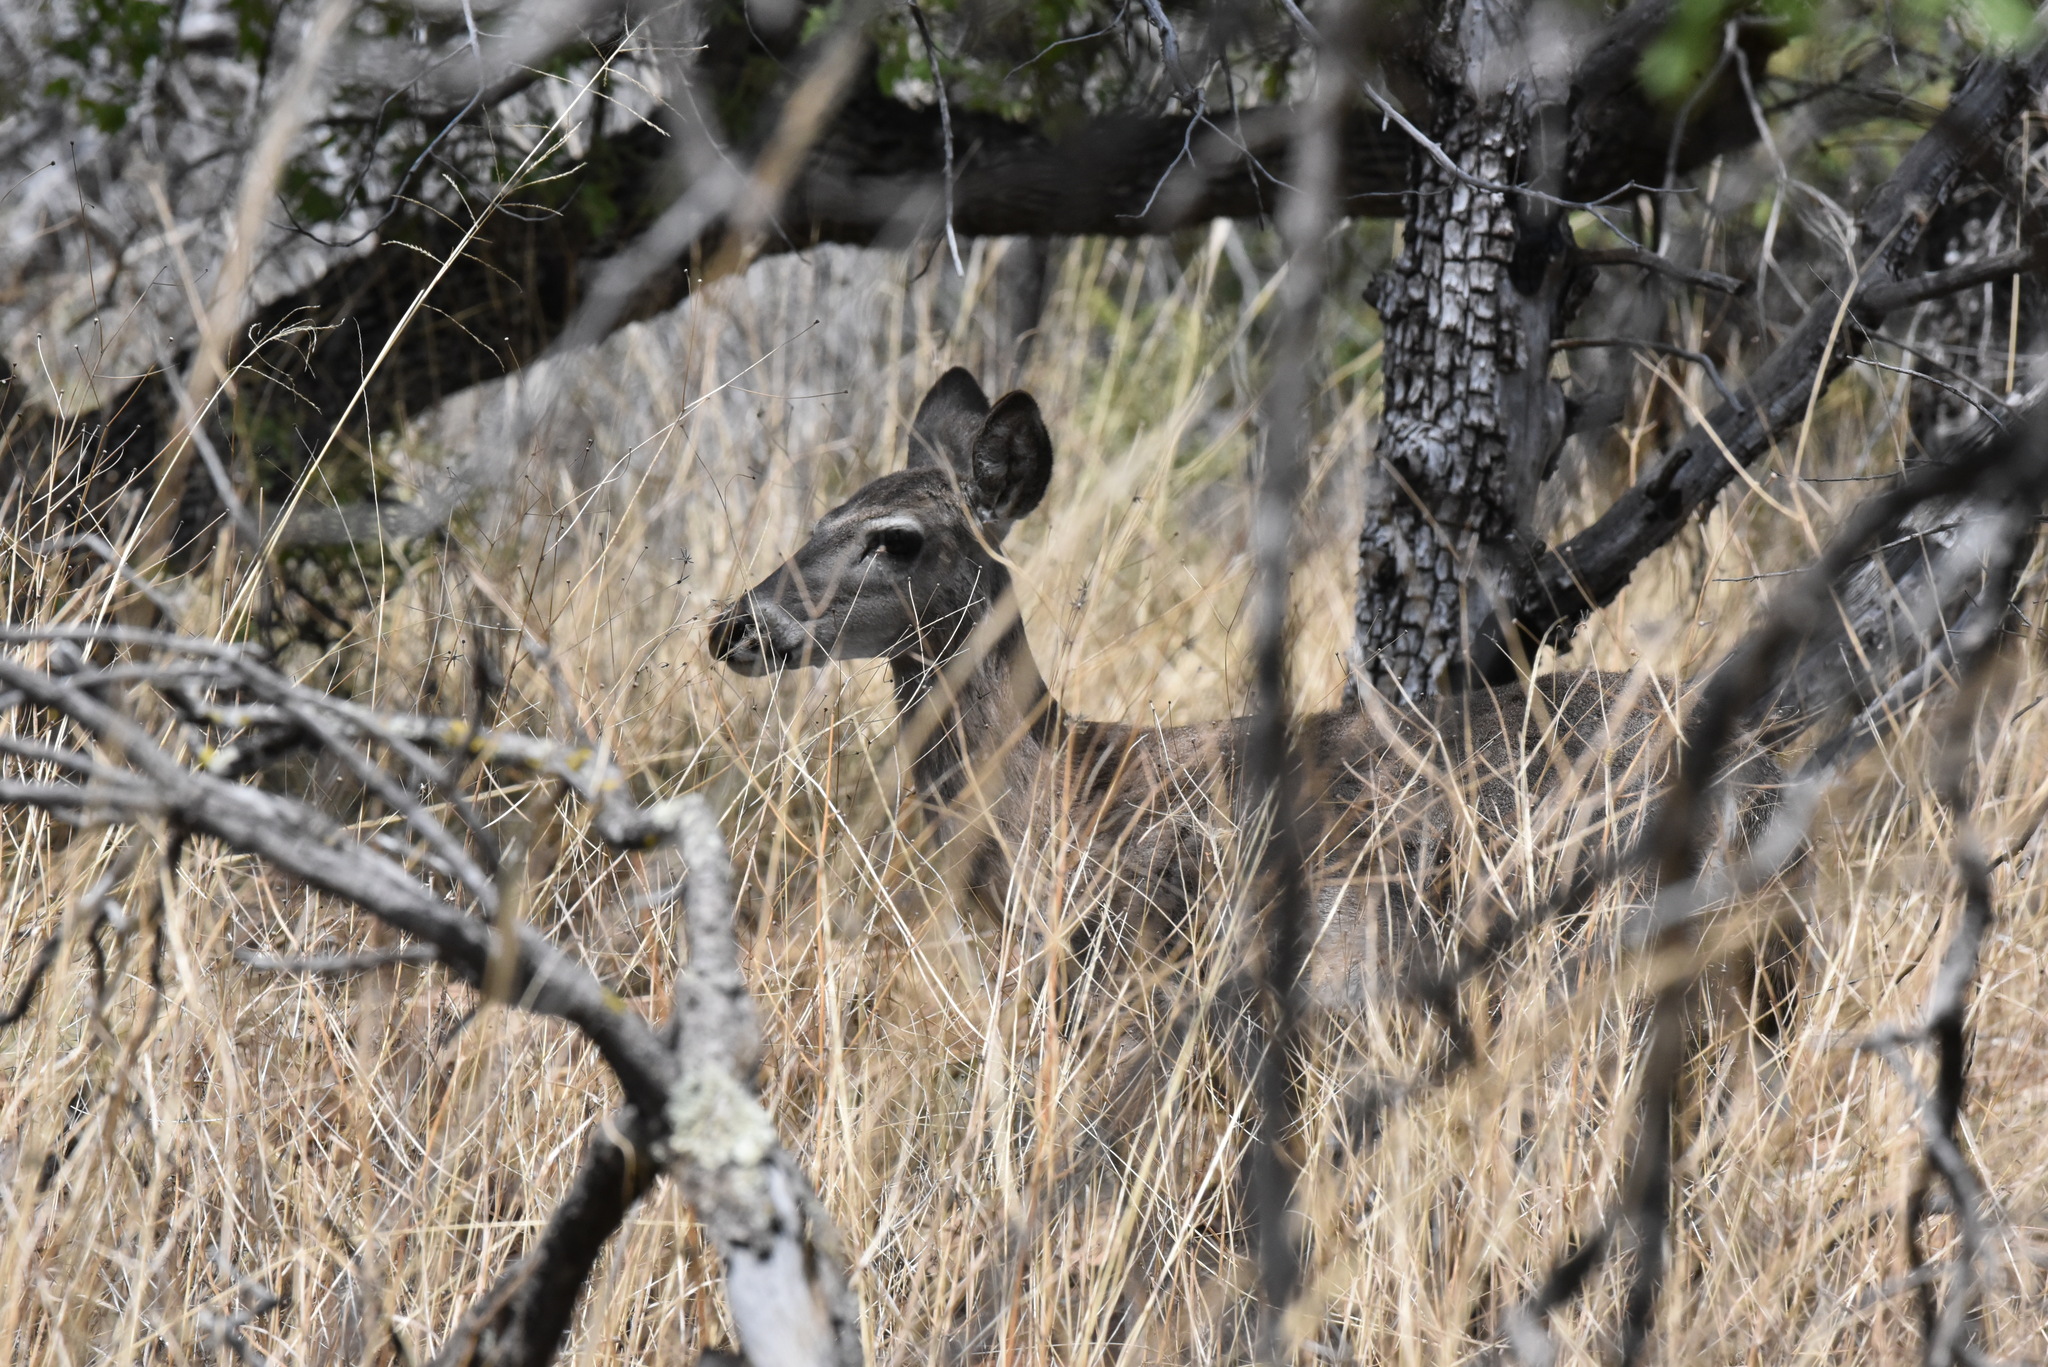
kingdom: Animalia
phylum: Chordata
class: Mammalia
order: Artiodactyla
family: Cervidae
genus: Odocoileus
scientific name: Odocoileus virginianus
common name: White-tailed deer
